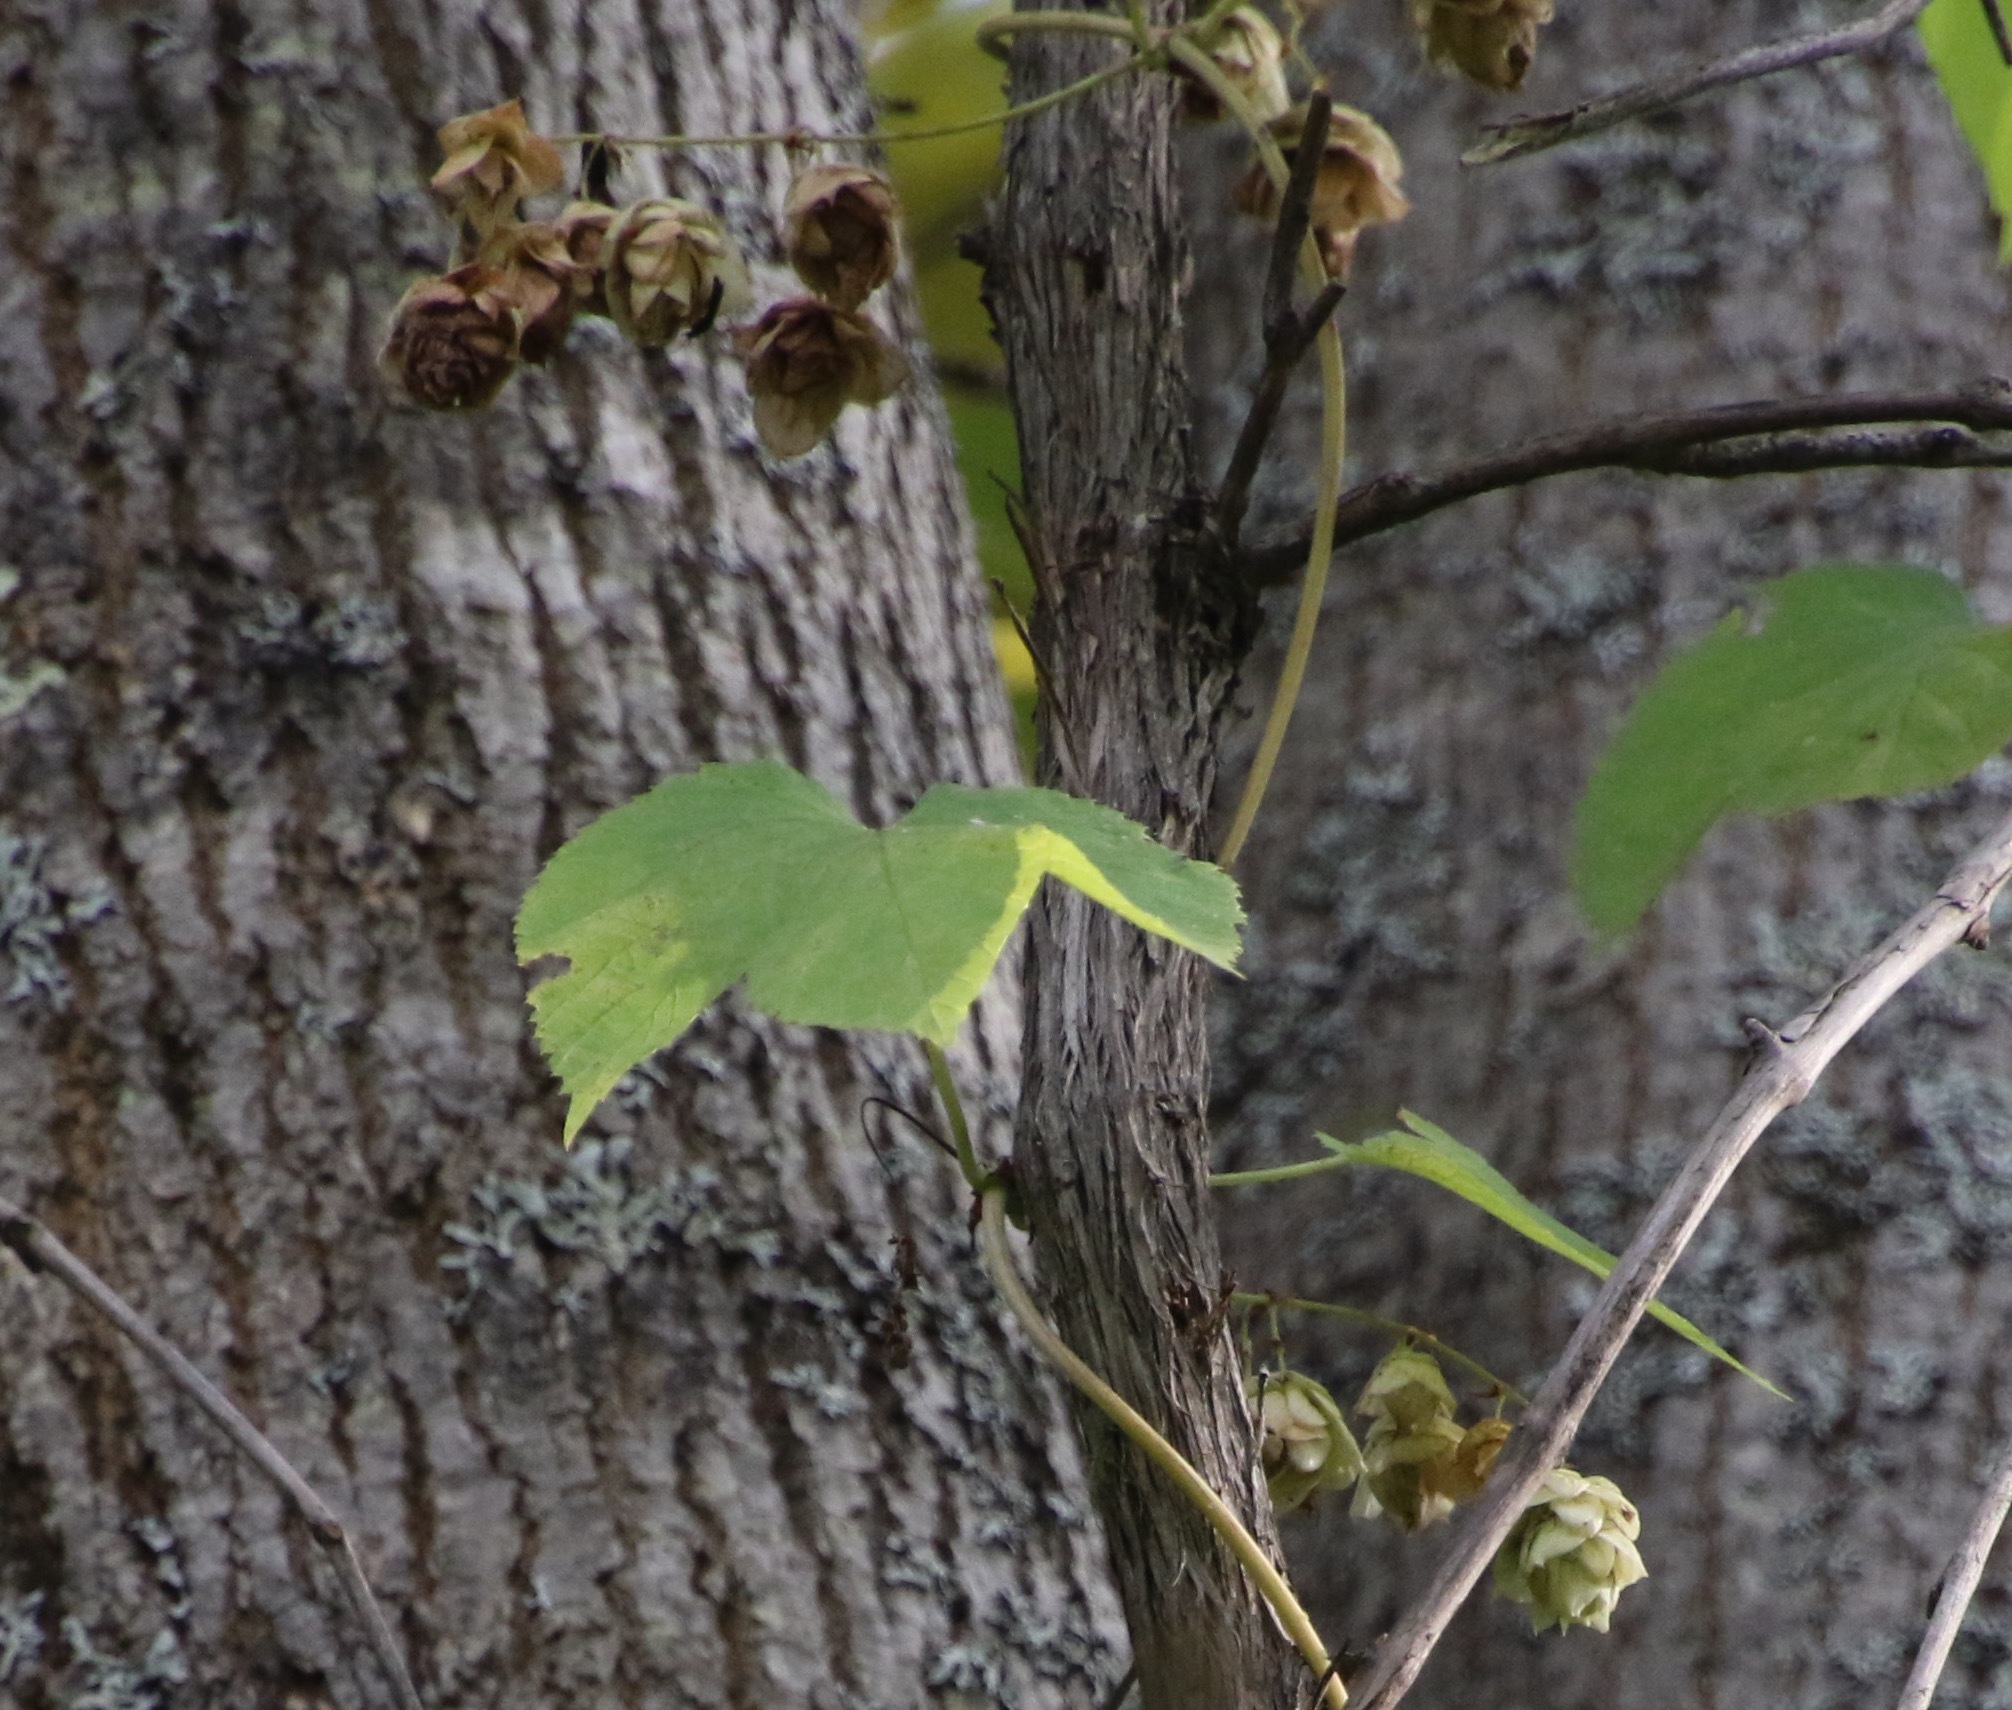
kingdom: Plantae
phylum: Tracheophyta
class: Magnoliopsida
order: Rosales
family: Cannabaceae
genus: Humulus
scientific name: Humulus lupulus
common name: Hop
